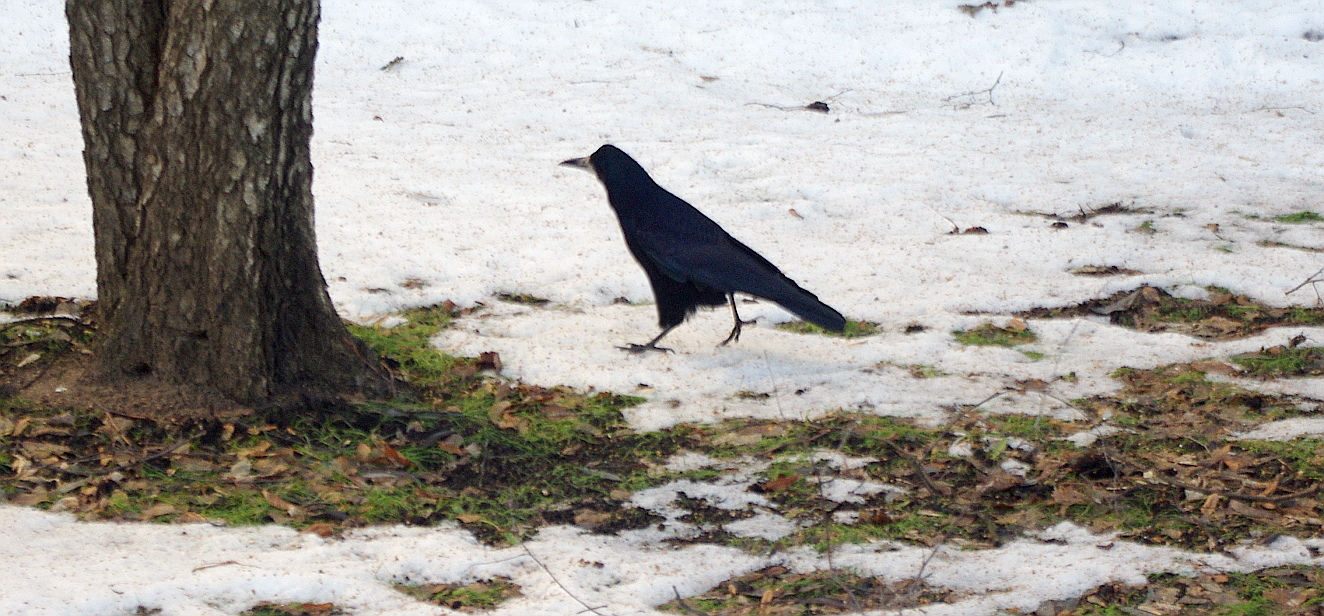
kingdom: Animalia
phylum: Chordata
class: Aves
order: Passeriformes
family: Corvidae
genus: Corvus
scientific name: Corvus frugilegus
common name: Rook
